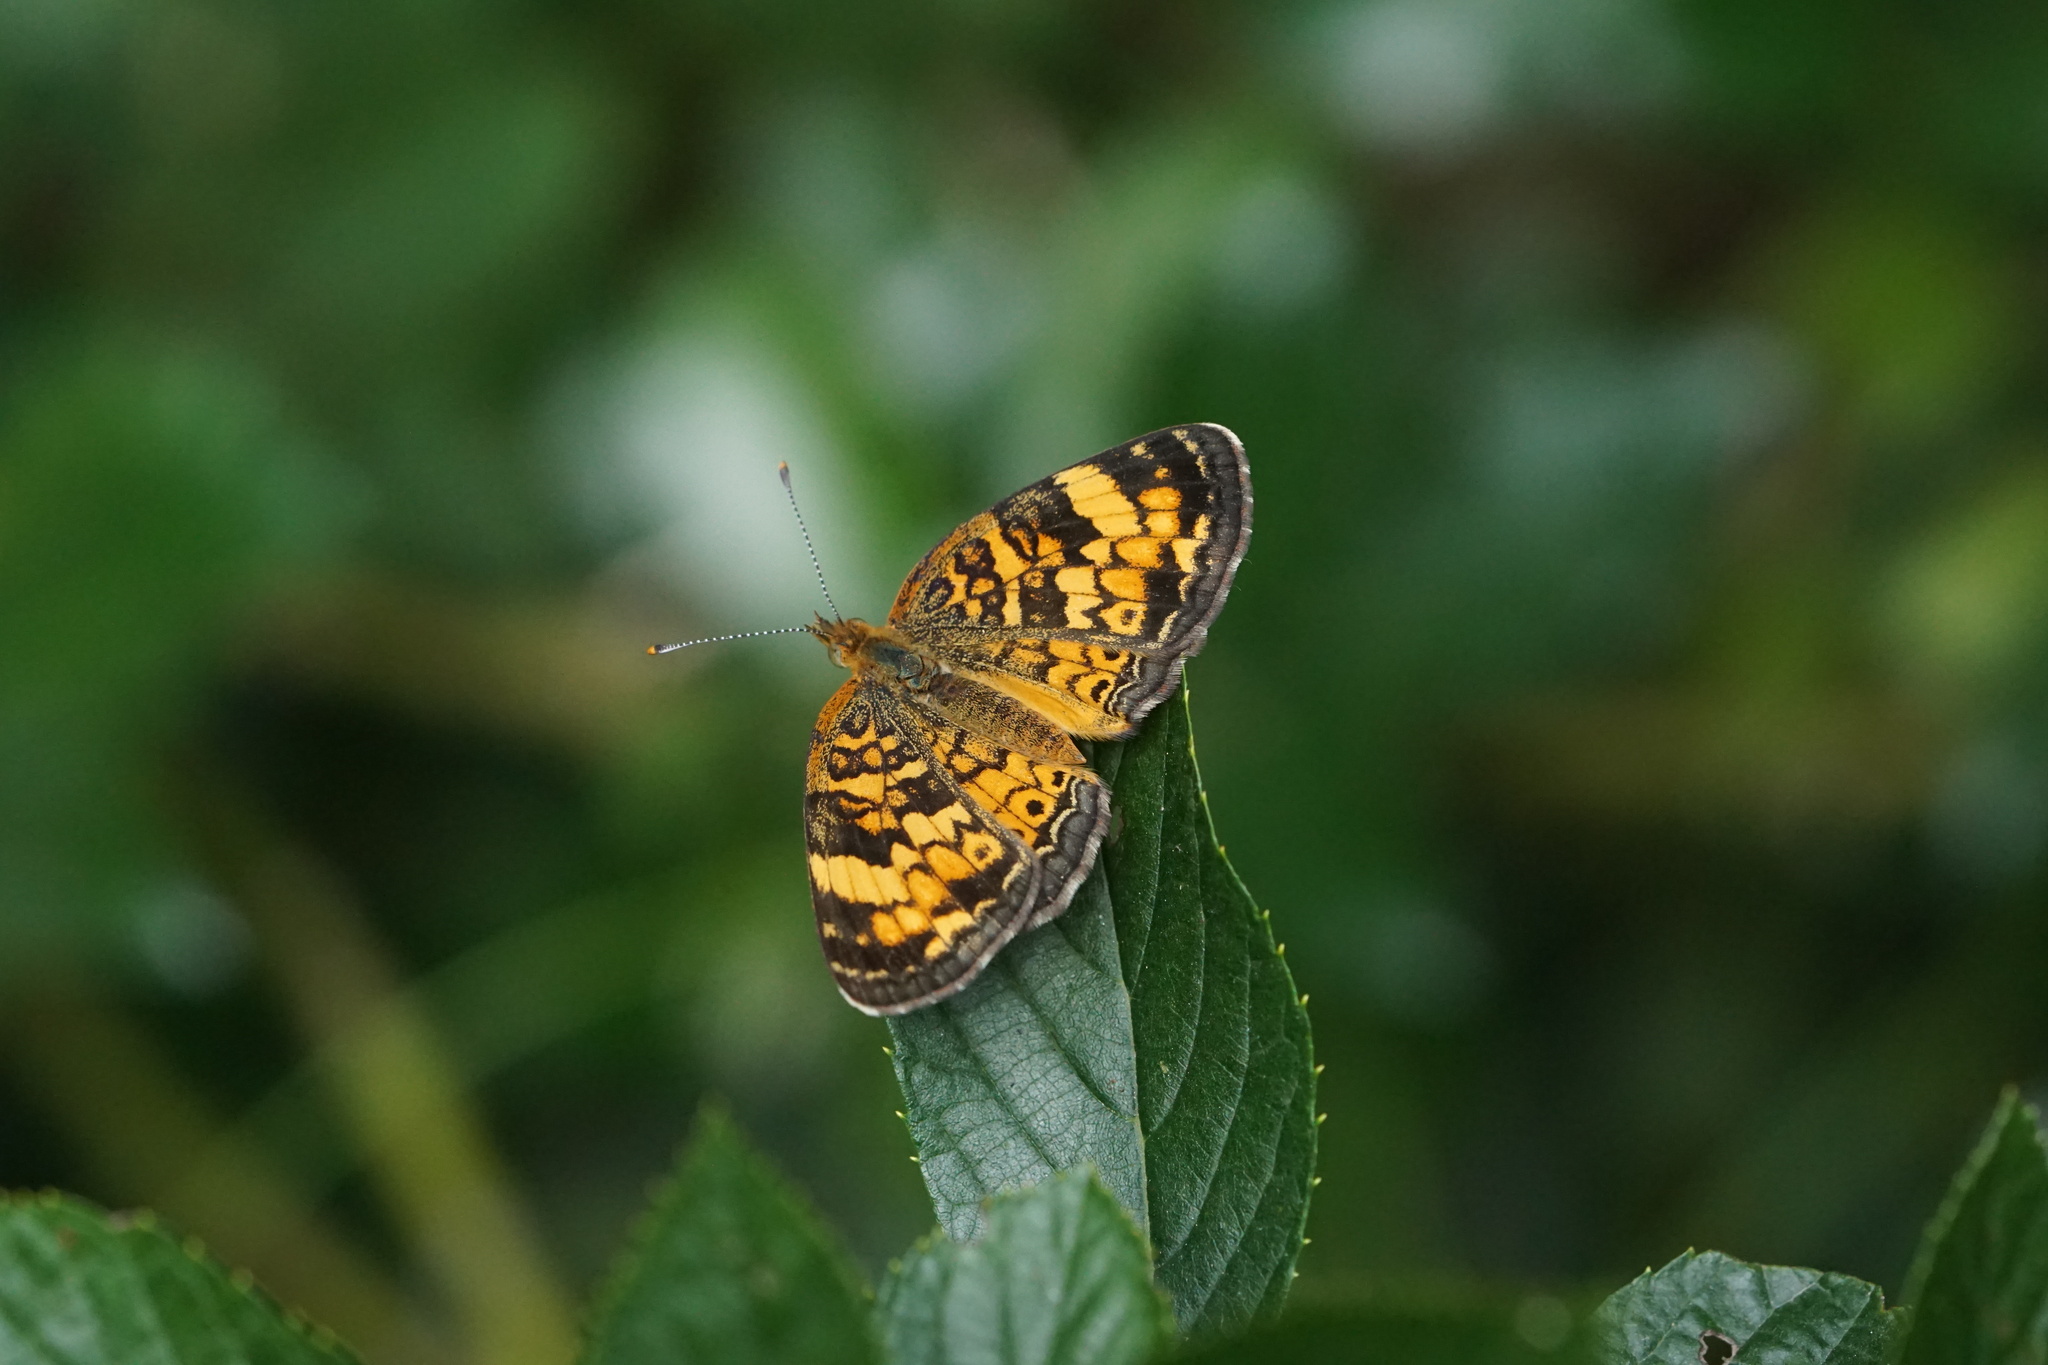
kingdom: Animalia
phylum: Arthropoda
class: Insecta
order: Lepidoptera
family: Nymphalidae
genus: Phyciodes
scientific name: Phyciodes tharos
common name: Pearl crescent
